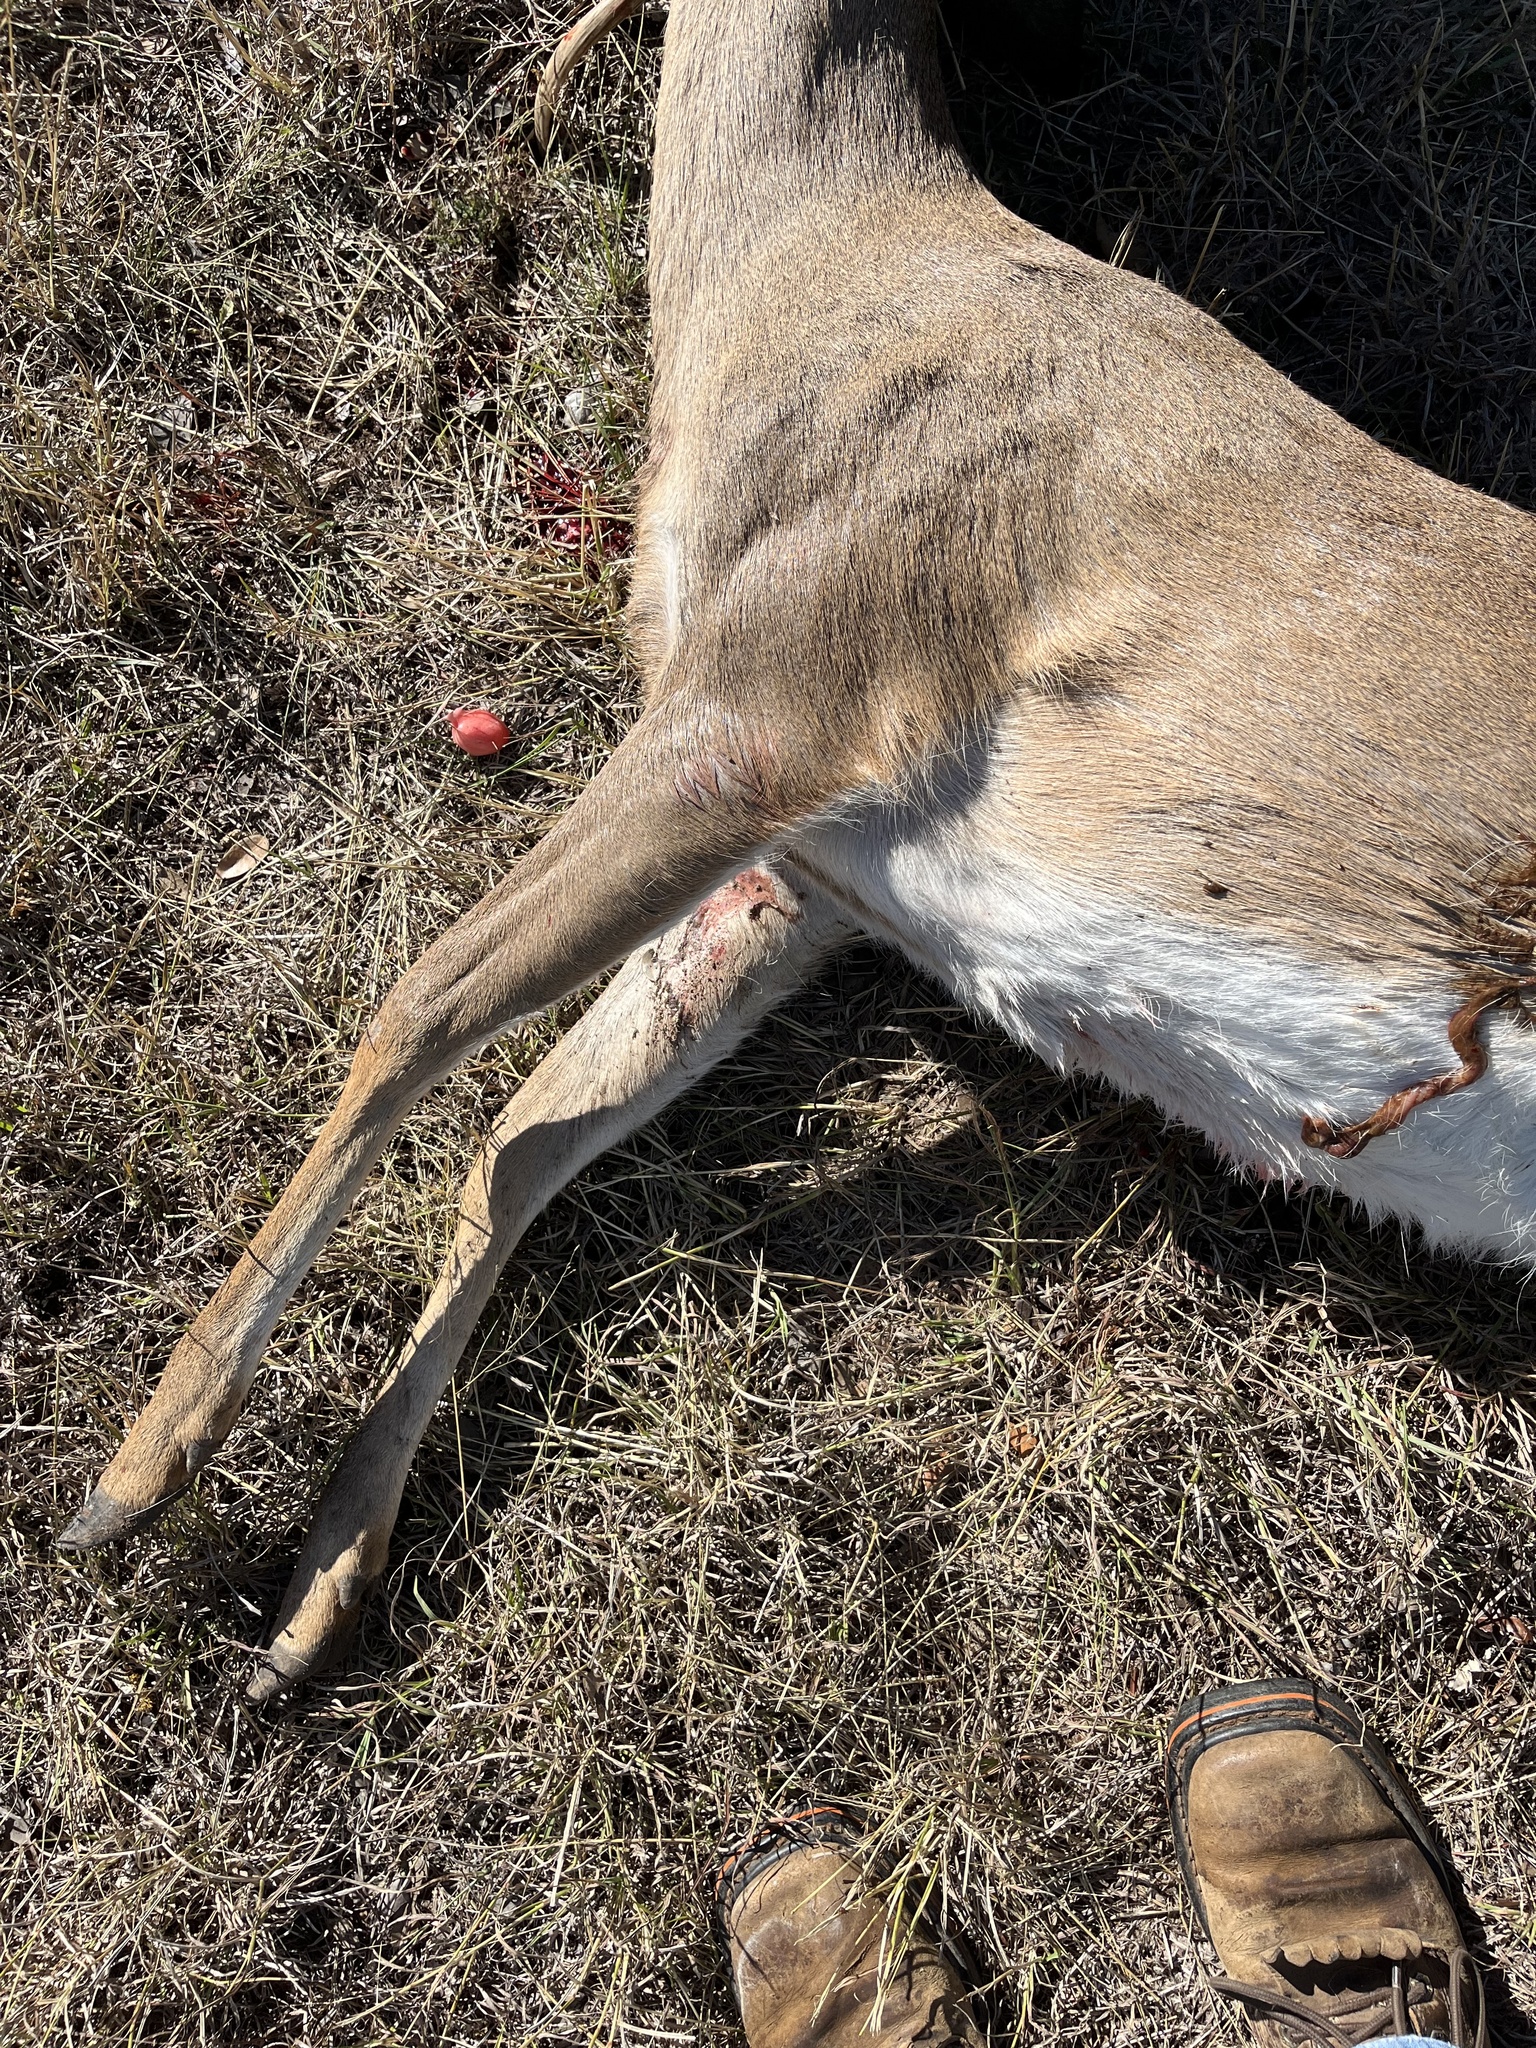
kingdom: Animalia
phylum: Chordata
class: Mammalia
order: Artiodactyla
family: Cervidae
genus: Odocoileus
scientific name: Odocoileus virginianus
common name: White-tailed deer
